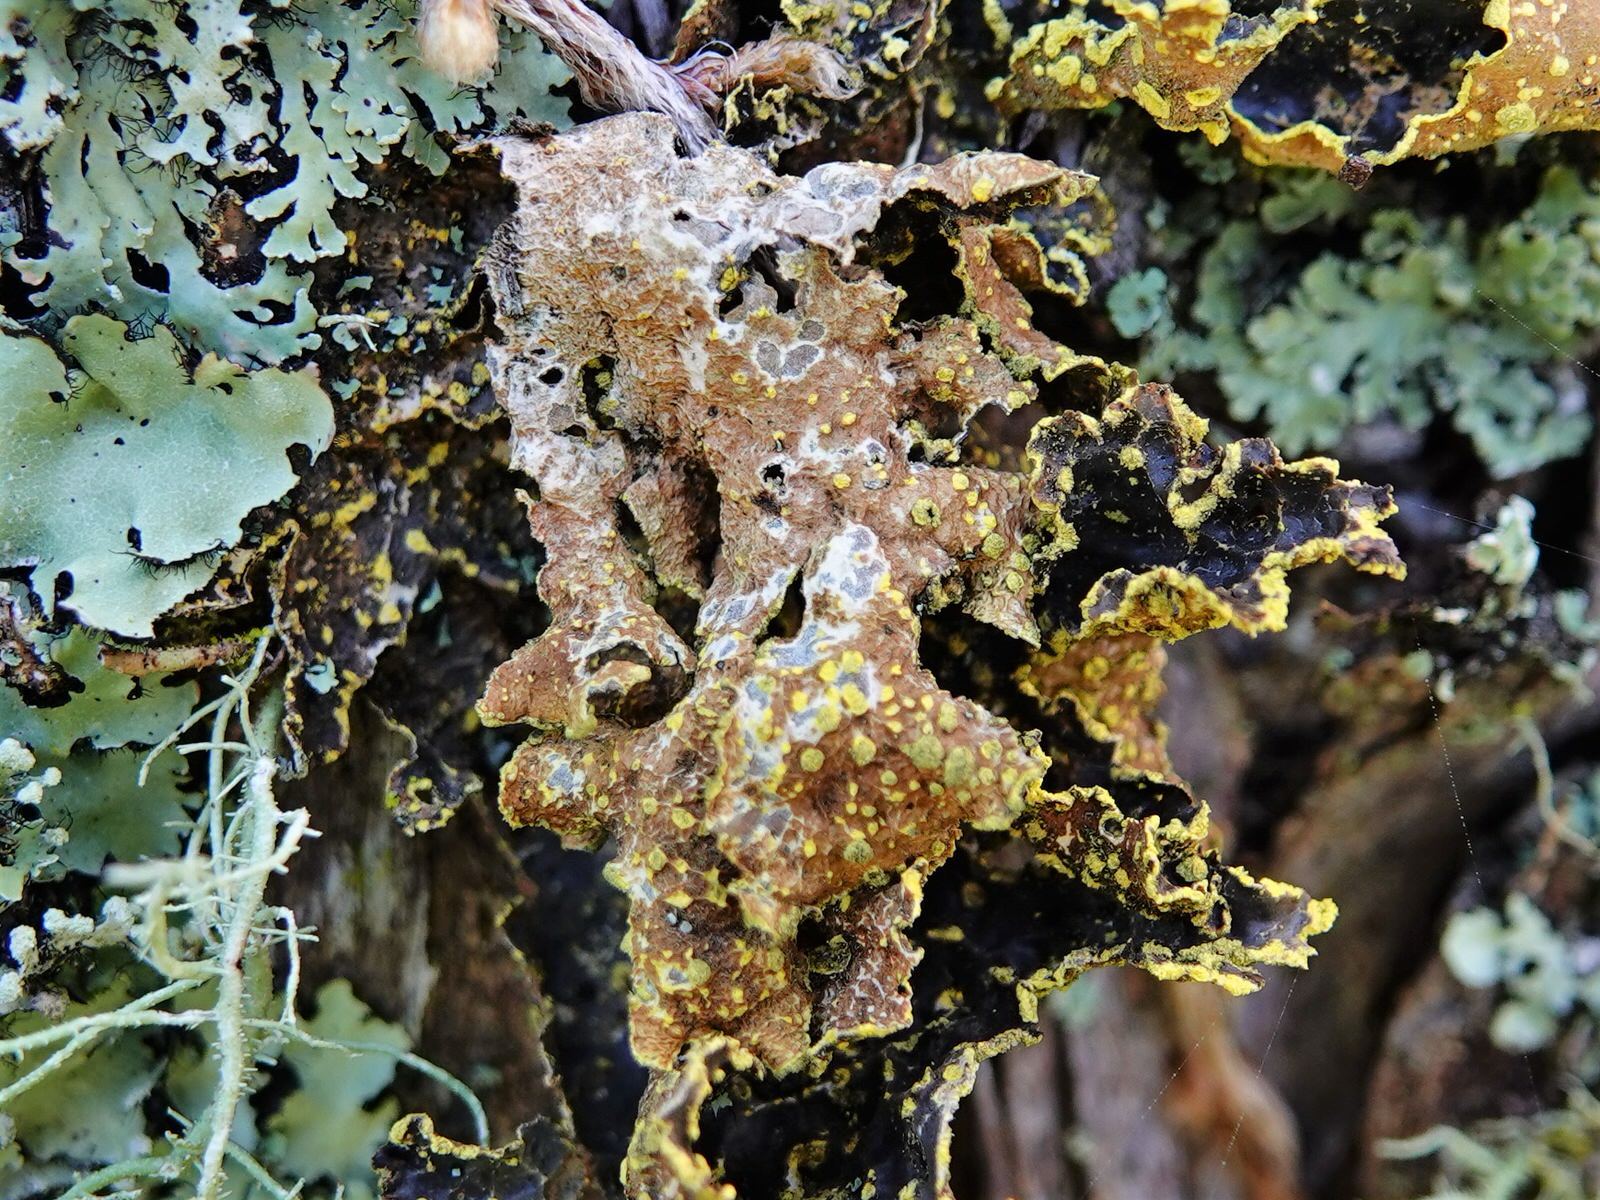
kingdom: Fungi
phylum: Ascomycota
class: Lecanoromycetes
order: Peltigerales
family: Lobariaceae
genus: Pseudocyphellaria
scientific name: Pseudocyphellaria crocata
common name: Golden specklebelly
